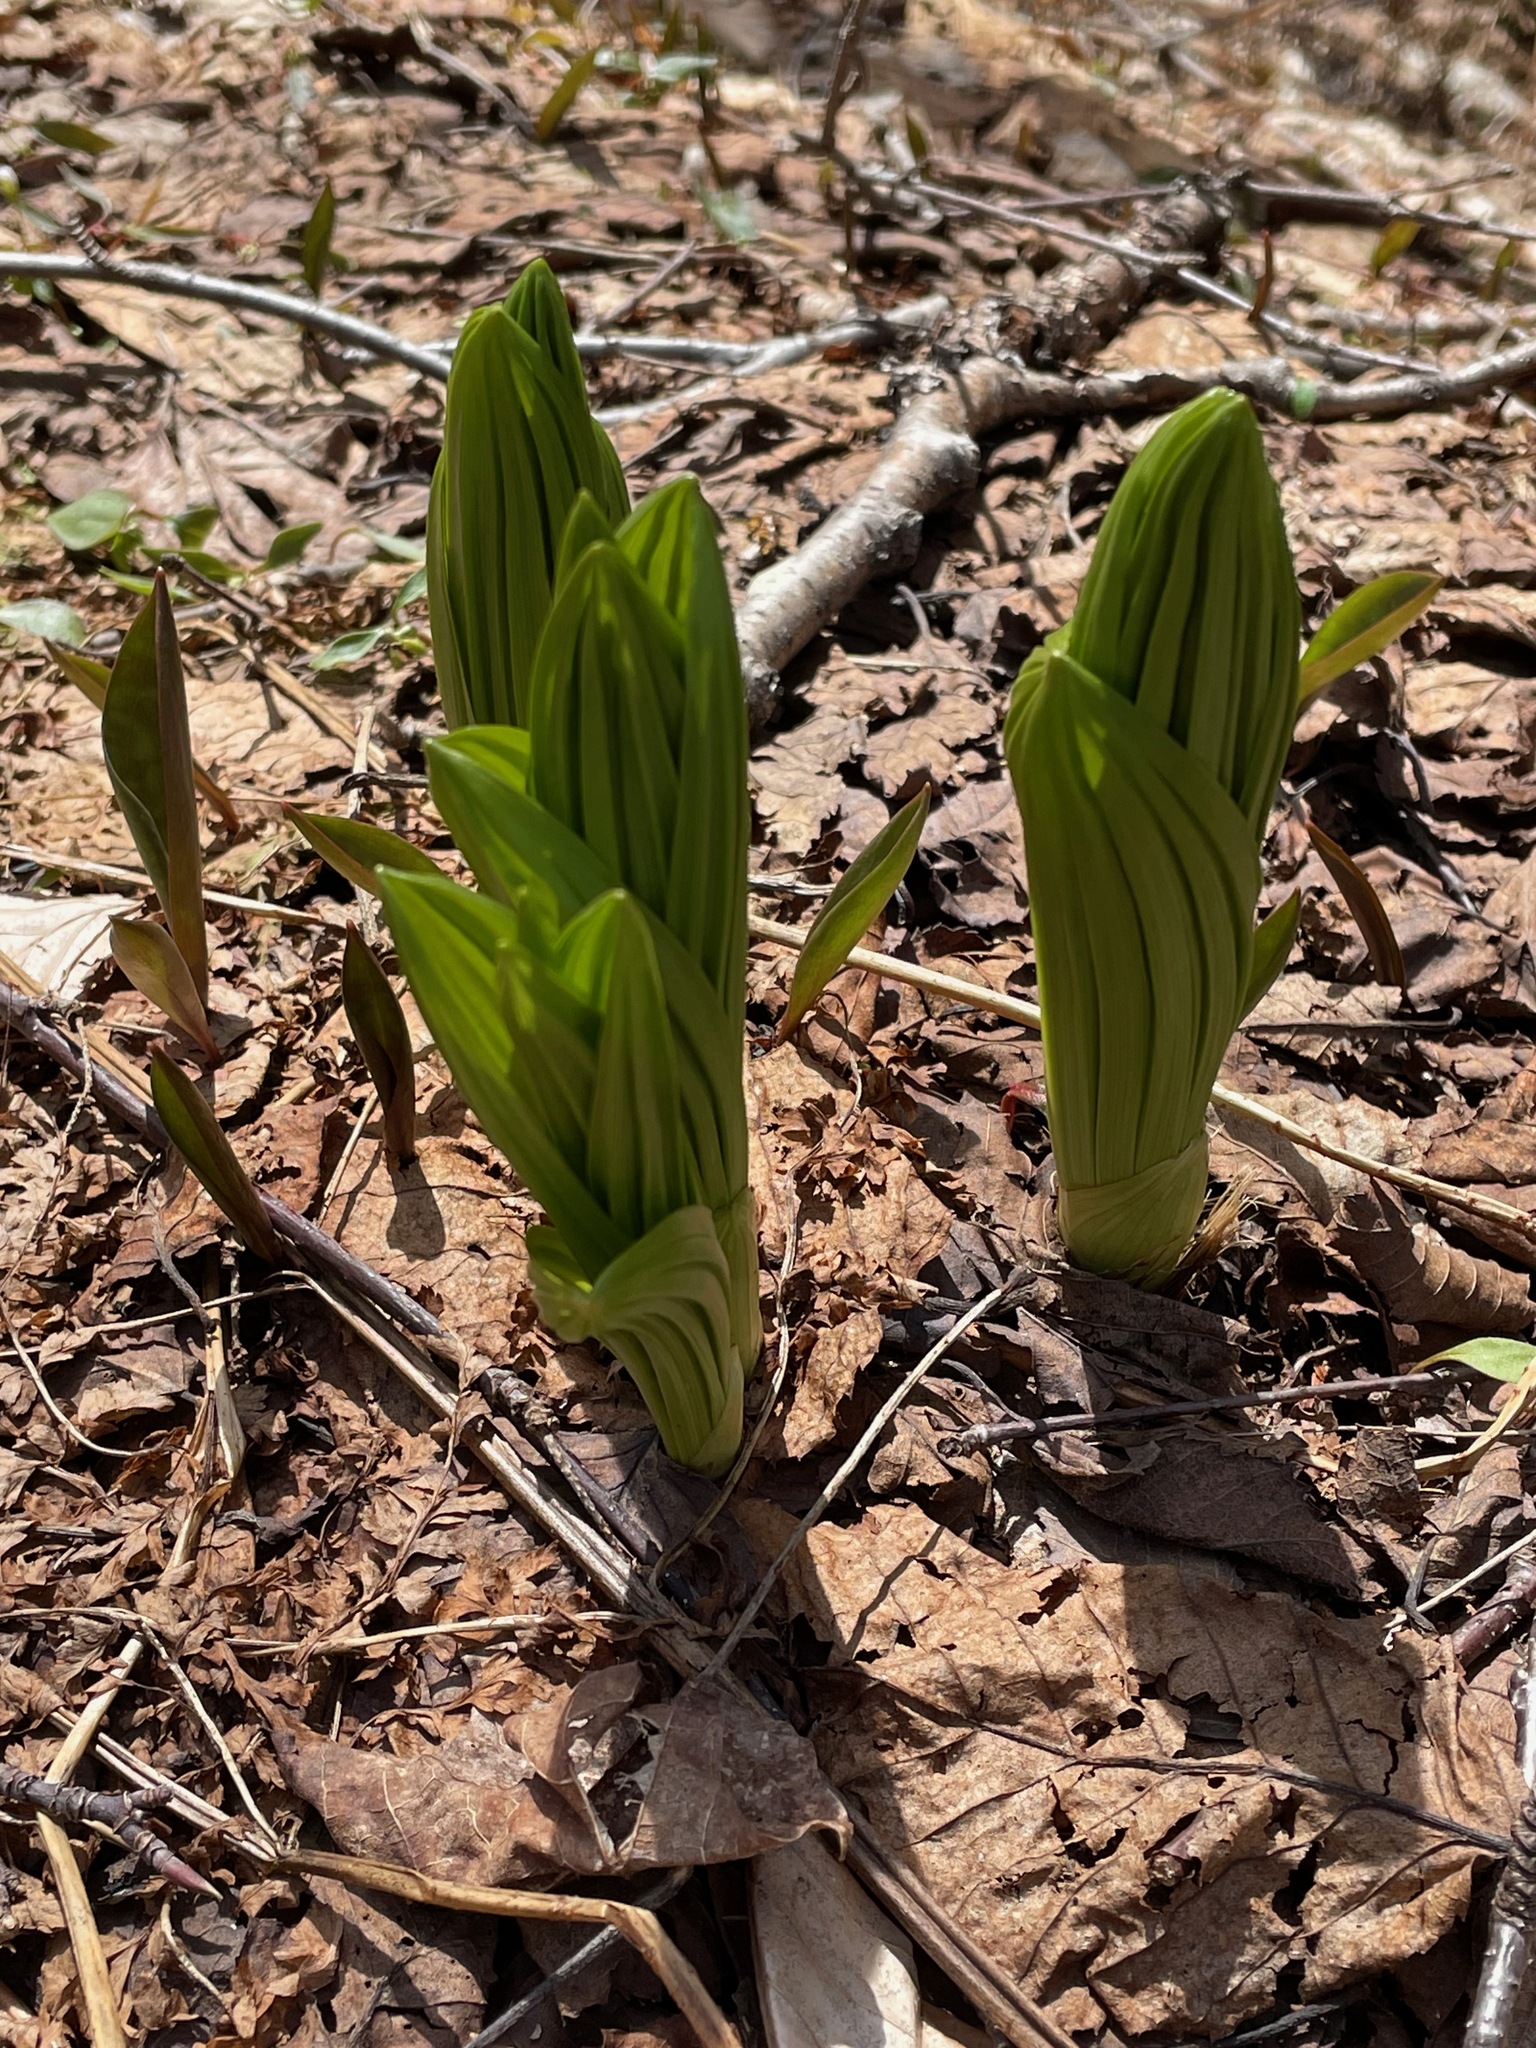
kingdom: Plantae
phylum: Tracheophyta
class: Liliopsida
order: Liliales
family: Melanthiaceae
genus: Veratrum
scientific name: Veratrum viride
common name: American false hellebore
